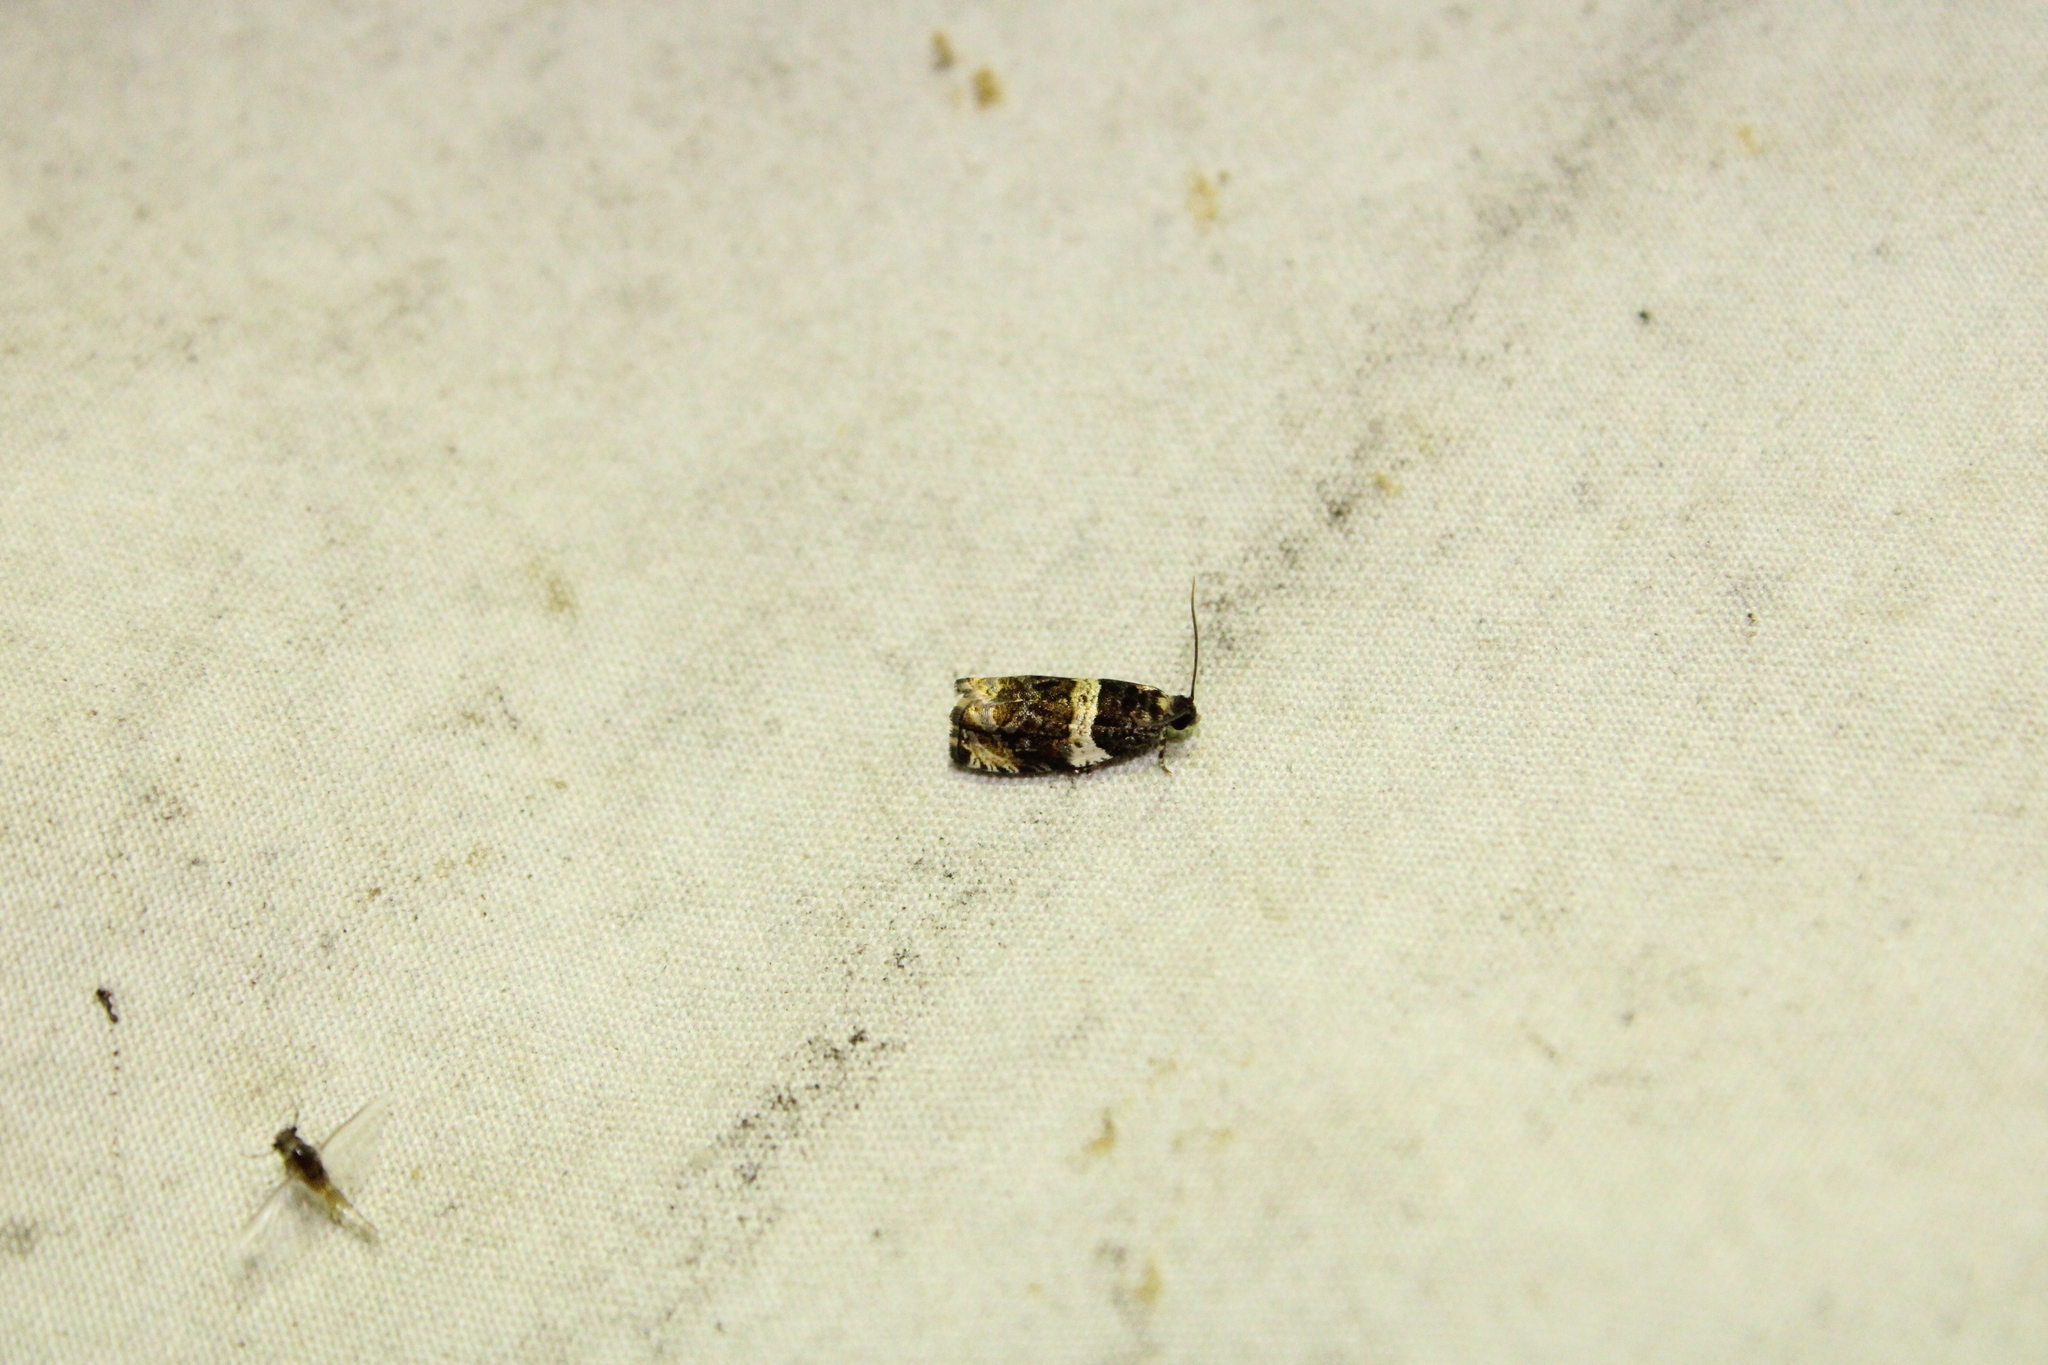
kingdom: Animalia
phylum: Arthropoda
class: Insecta
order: Lepidoptera
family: Tortricidae
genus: Olethreutes
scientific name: Olethreutes fasciatana
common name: Banded olethreutes moth
